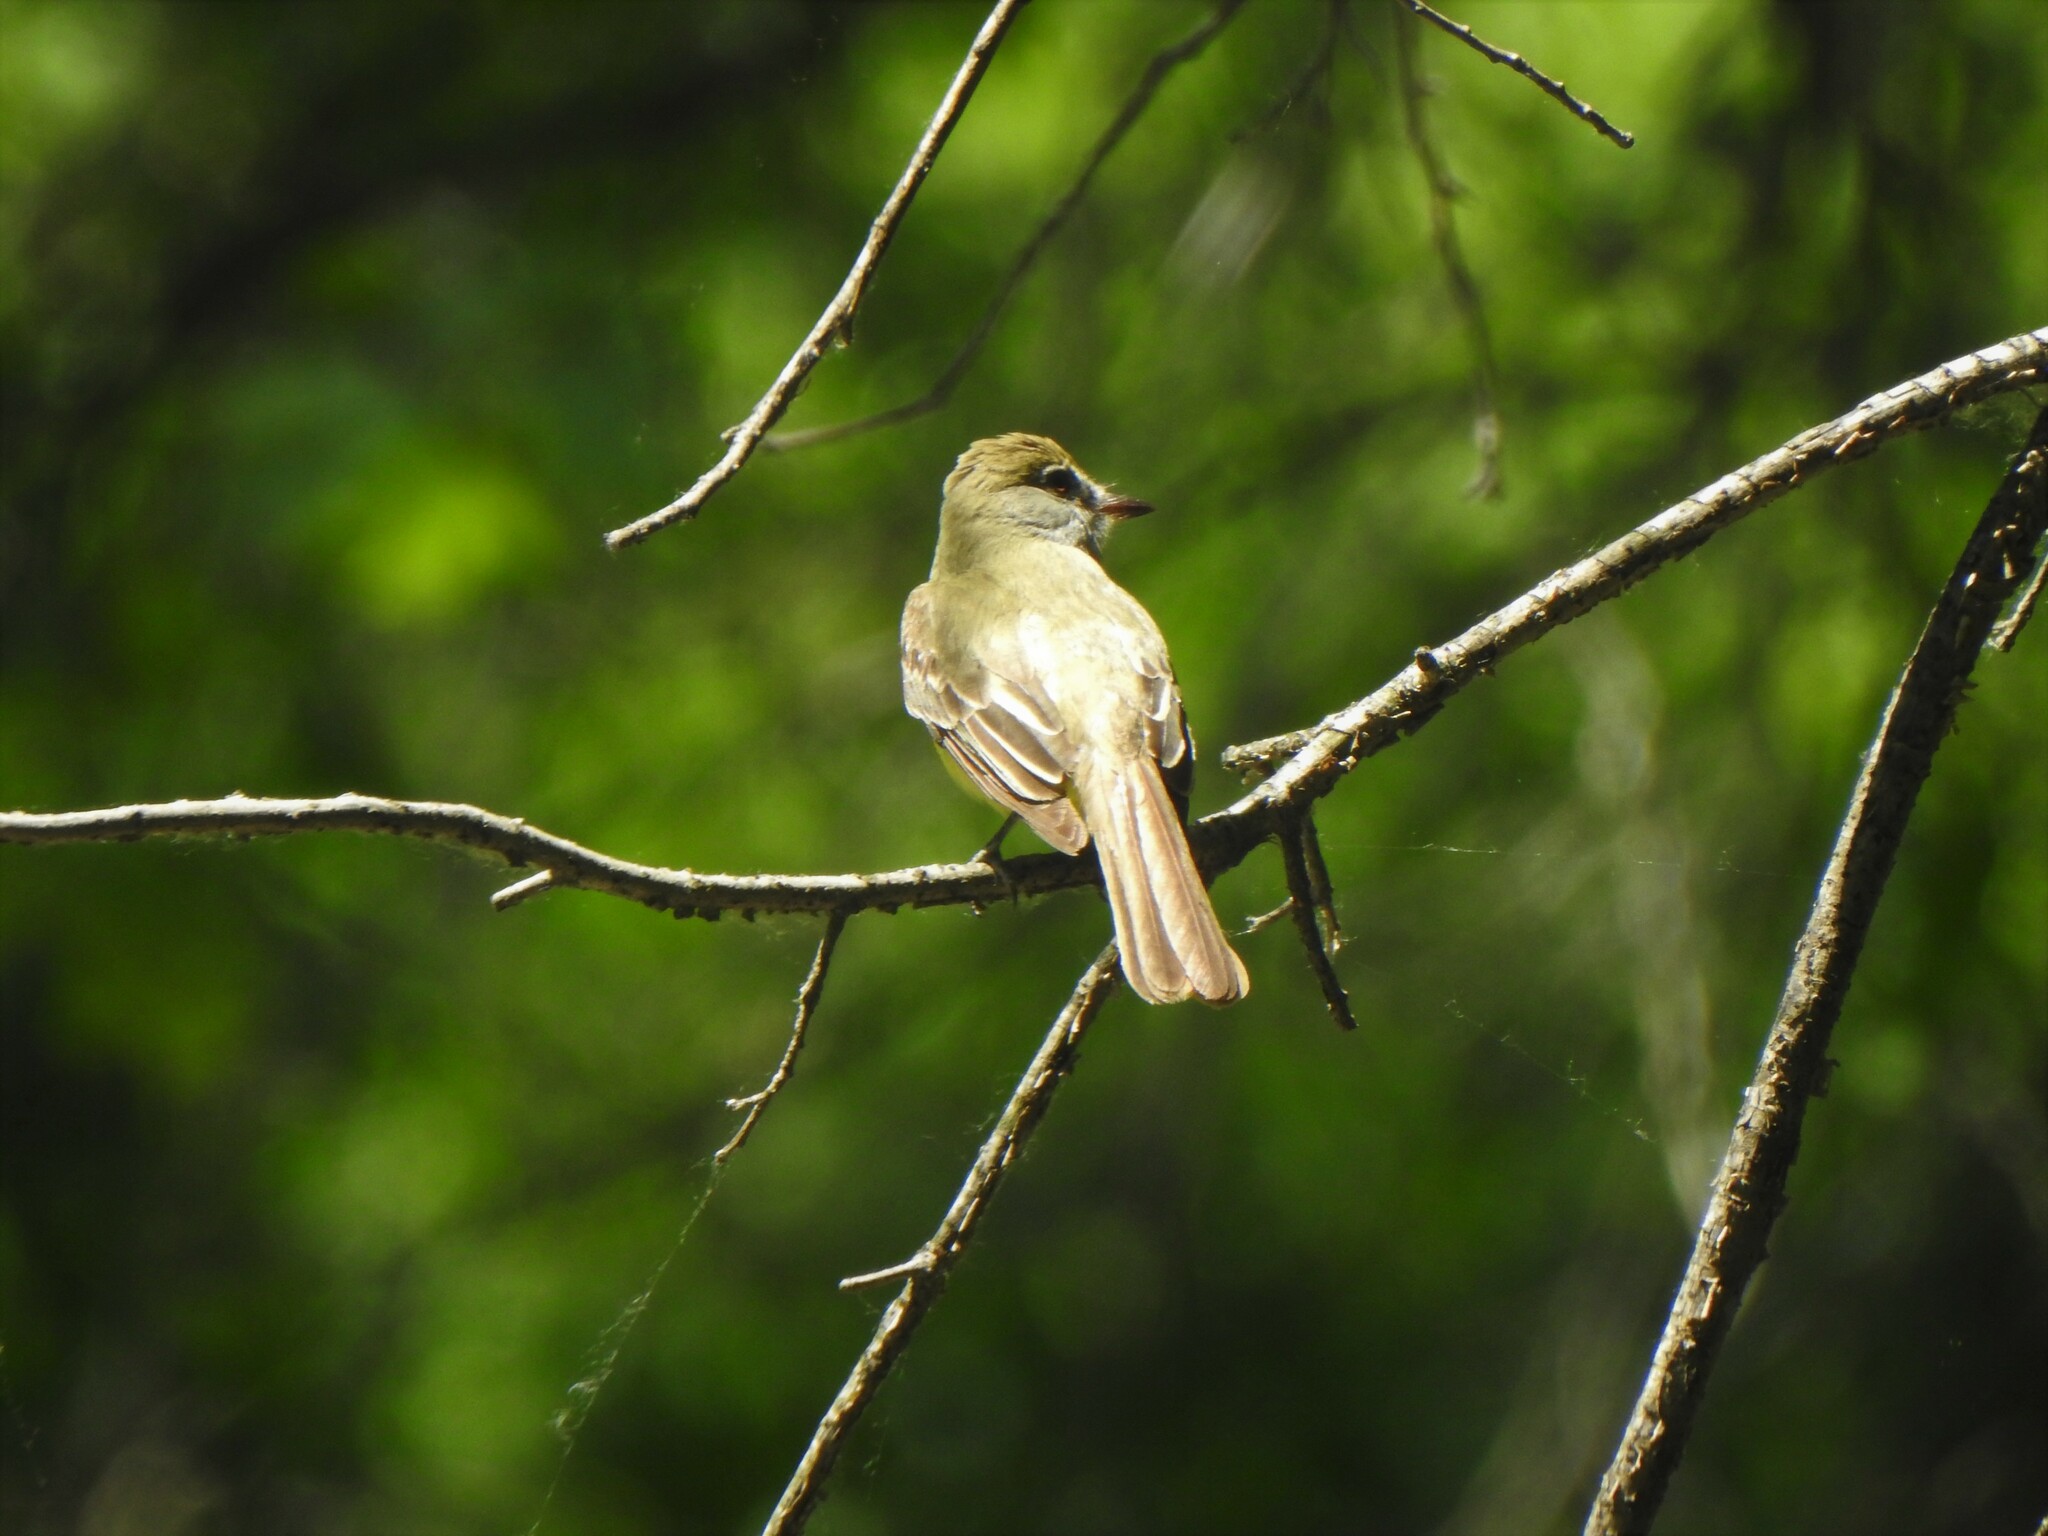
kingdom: Animalia
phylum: Chordata
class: Aves
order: Passeriformes
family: Tyrannidae
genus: Myiarchus
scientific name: Myiarchus crinitus
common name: Great crested flycatcher
